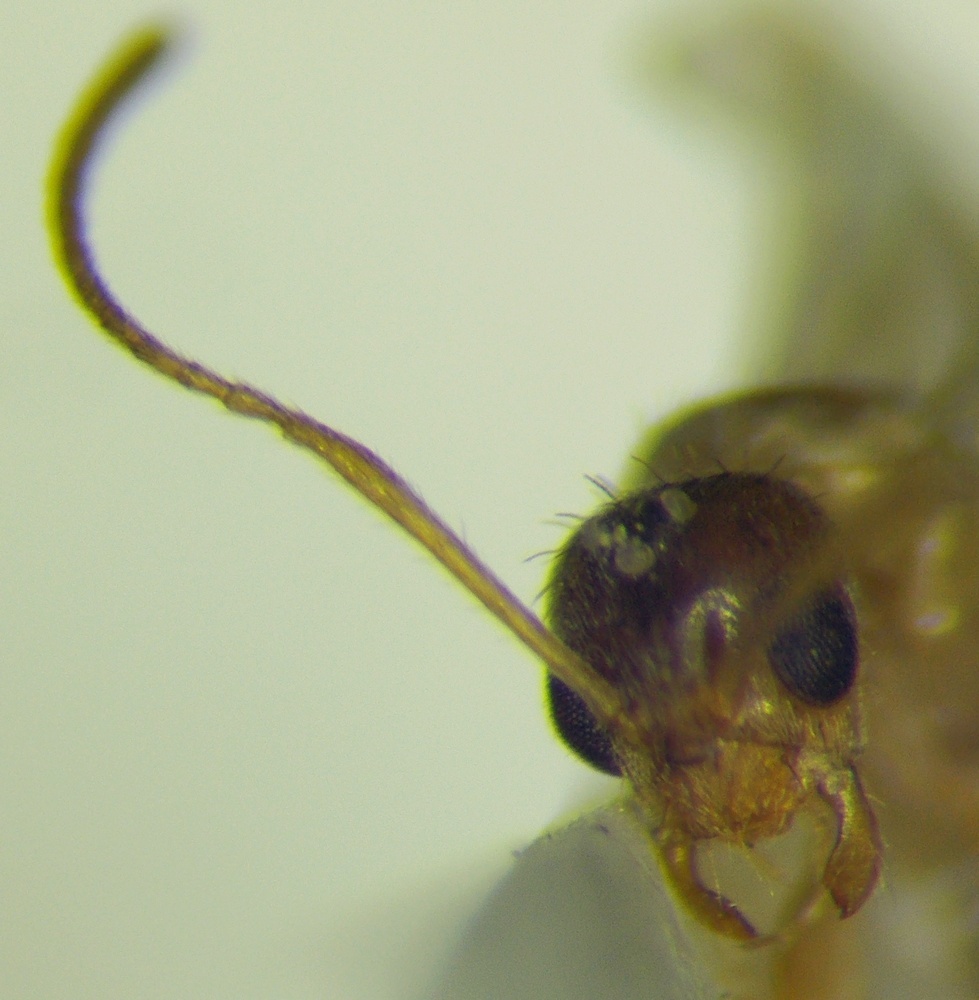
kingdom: Animalia
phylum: Arthropoda
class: Insecta
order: Hymenoptera
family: Formicidae
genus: Paratrechina
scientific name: Paratrechina jaegerskioeldi
